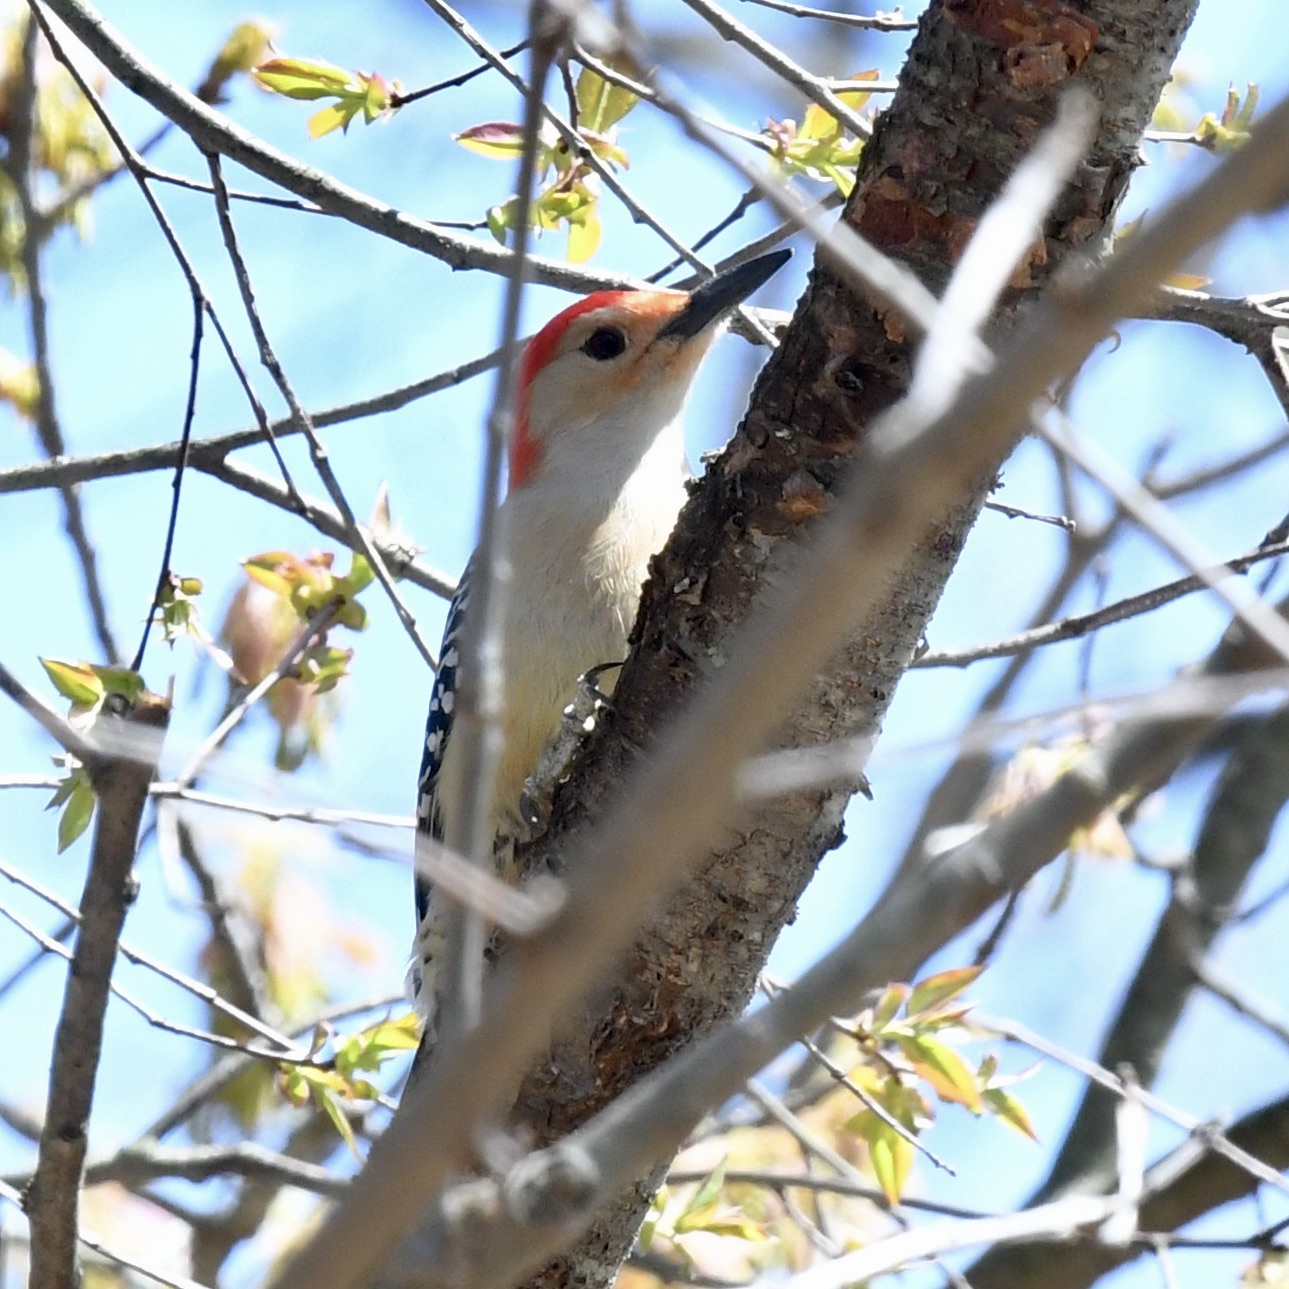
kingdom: Animalia
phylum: Chordata
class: Aves
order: Piciformes
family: Picidae
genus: Melanerpes
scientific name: Melanerpes carolinus
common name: Red-bellied woodpecker
